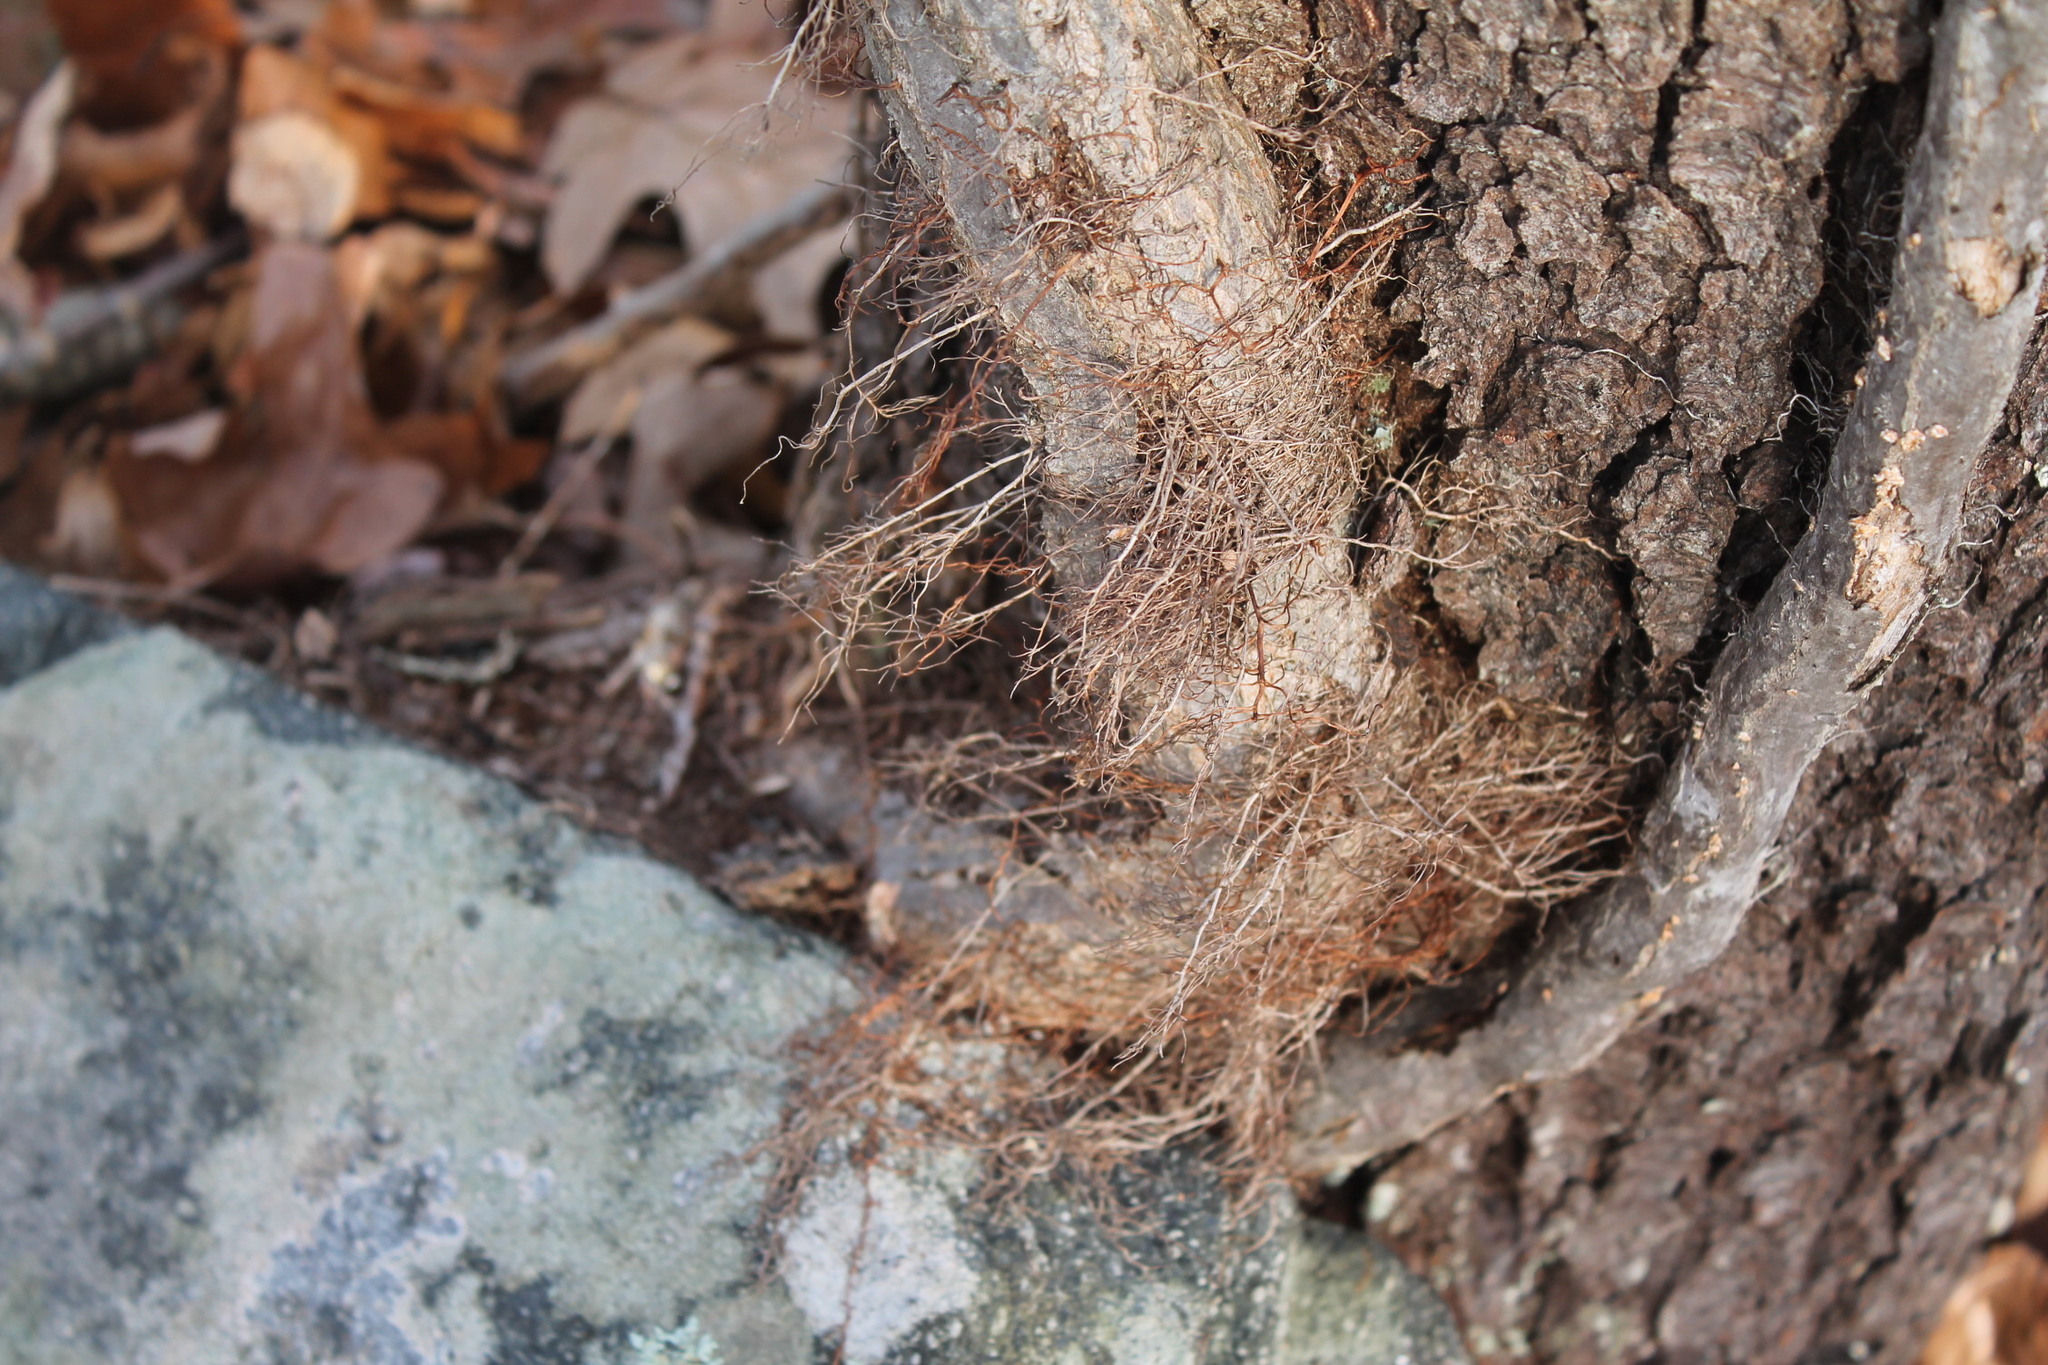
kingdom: Plantae
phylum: Tracheophyta
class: Magnoliopsida
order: Sapindales
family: Anacardiaceae
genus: Toxicodendron
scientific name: Toxicodendron radicans
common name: Poison ivy
